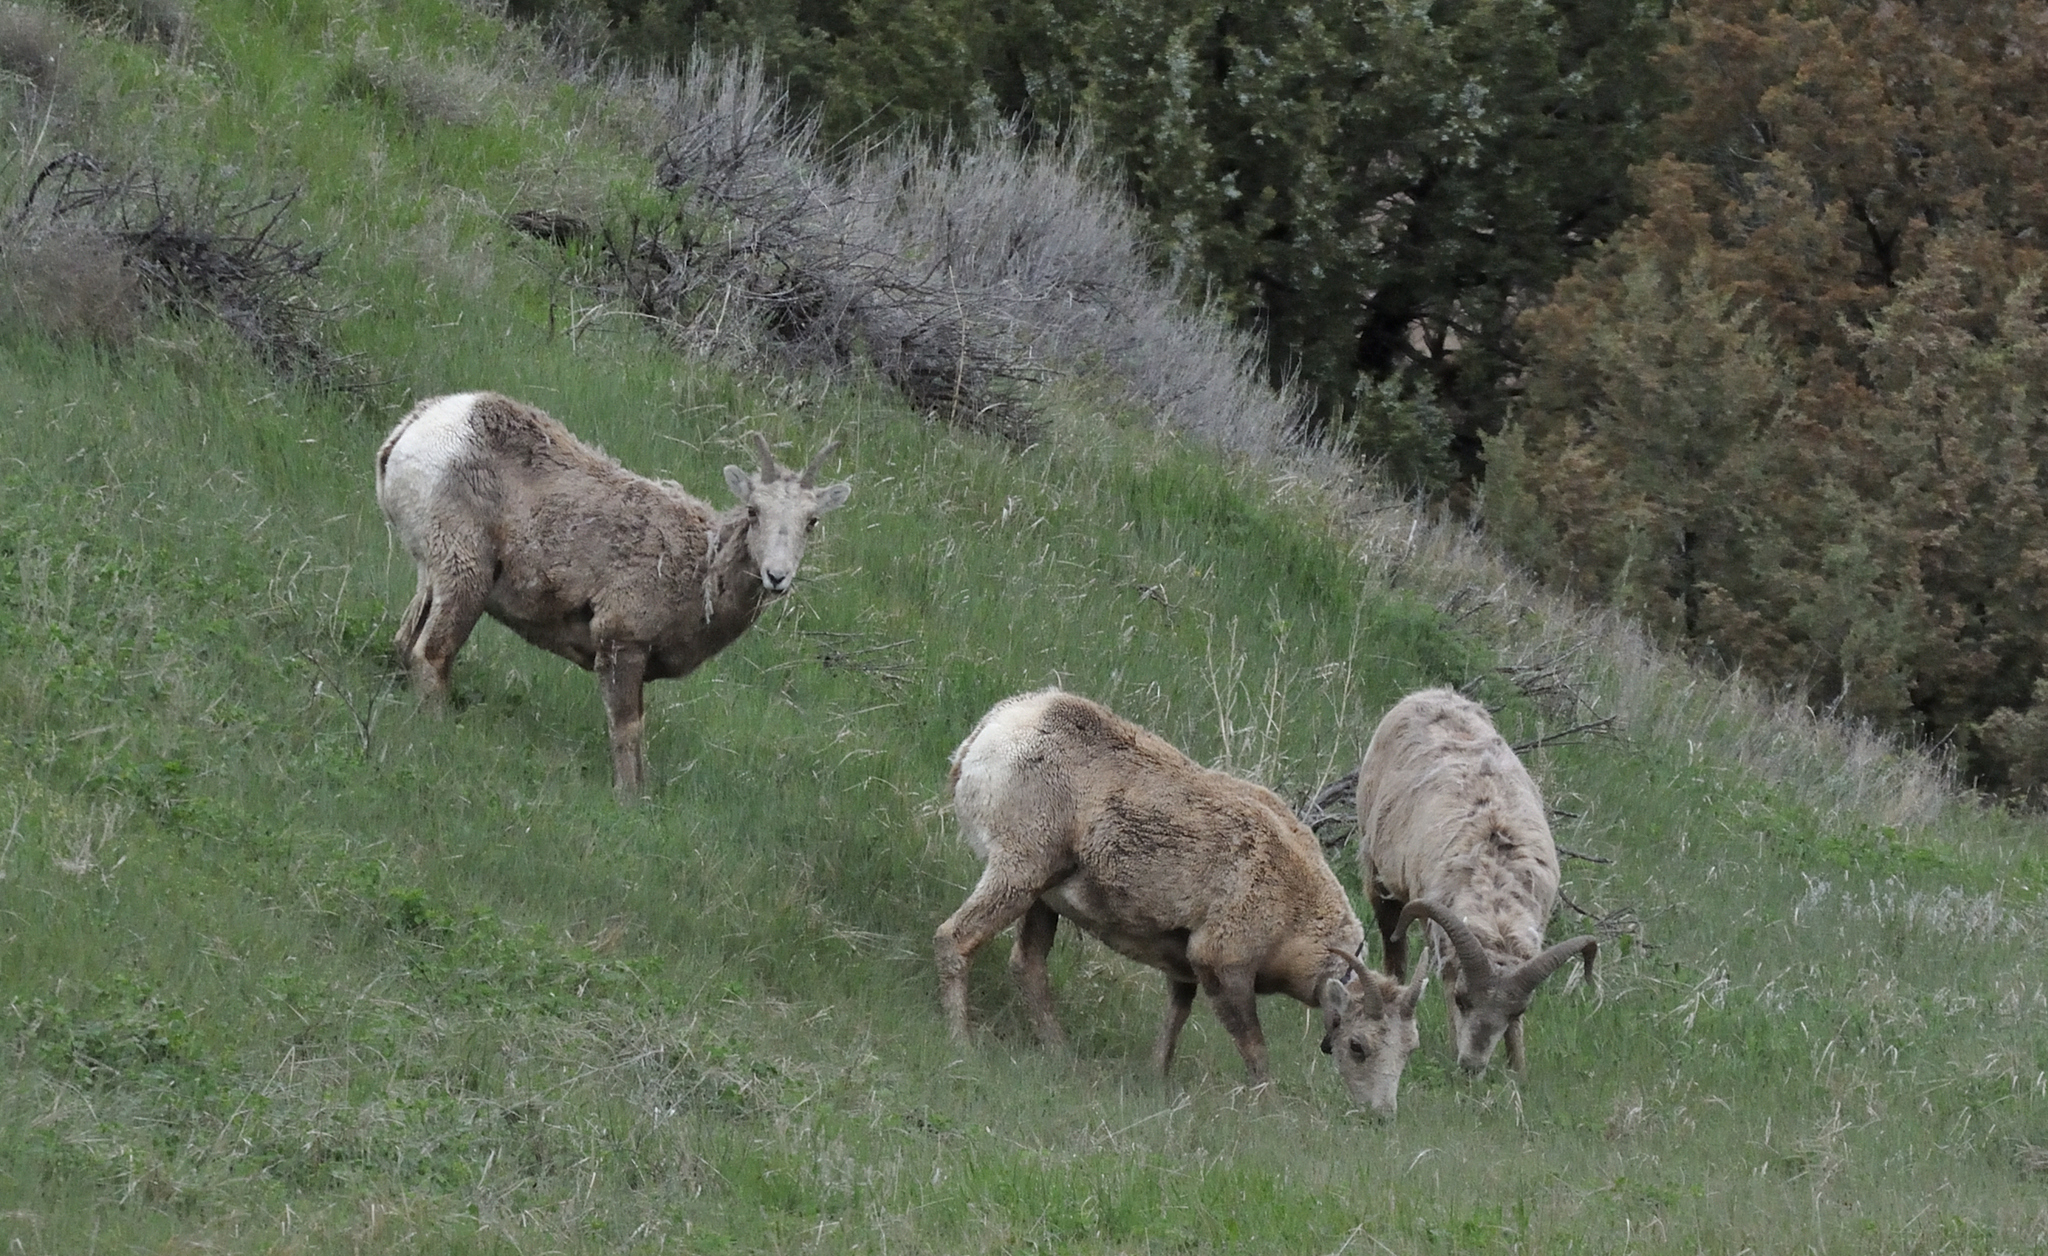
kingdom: Animalia
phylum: Chordata
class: Mammalia
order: Artiodactyla
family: Bovidae
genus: Ovis
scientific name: Ovis canadensis
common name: Bighorn sheep
